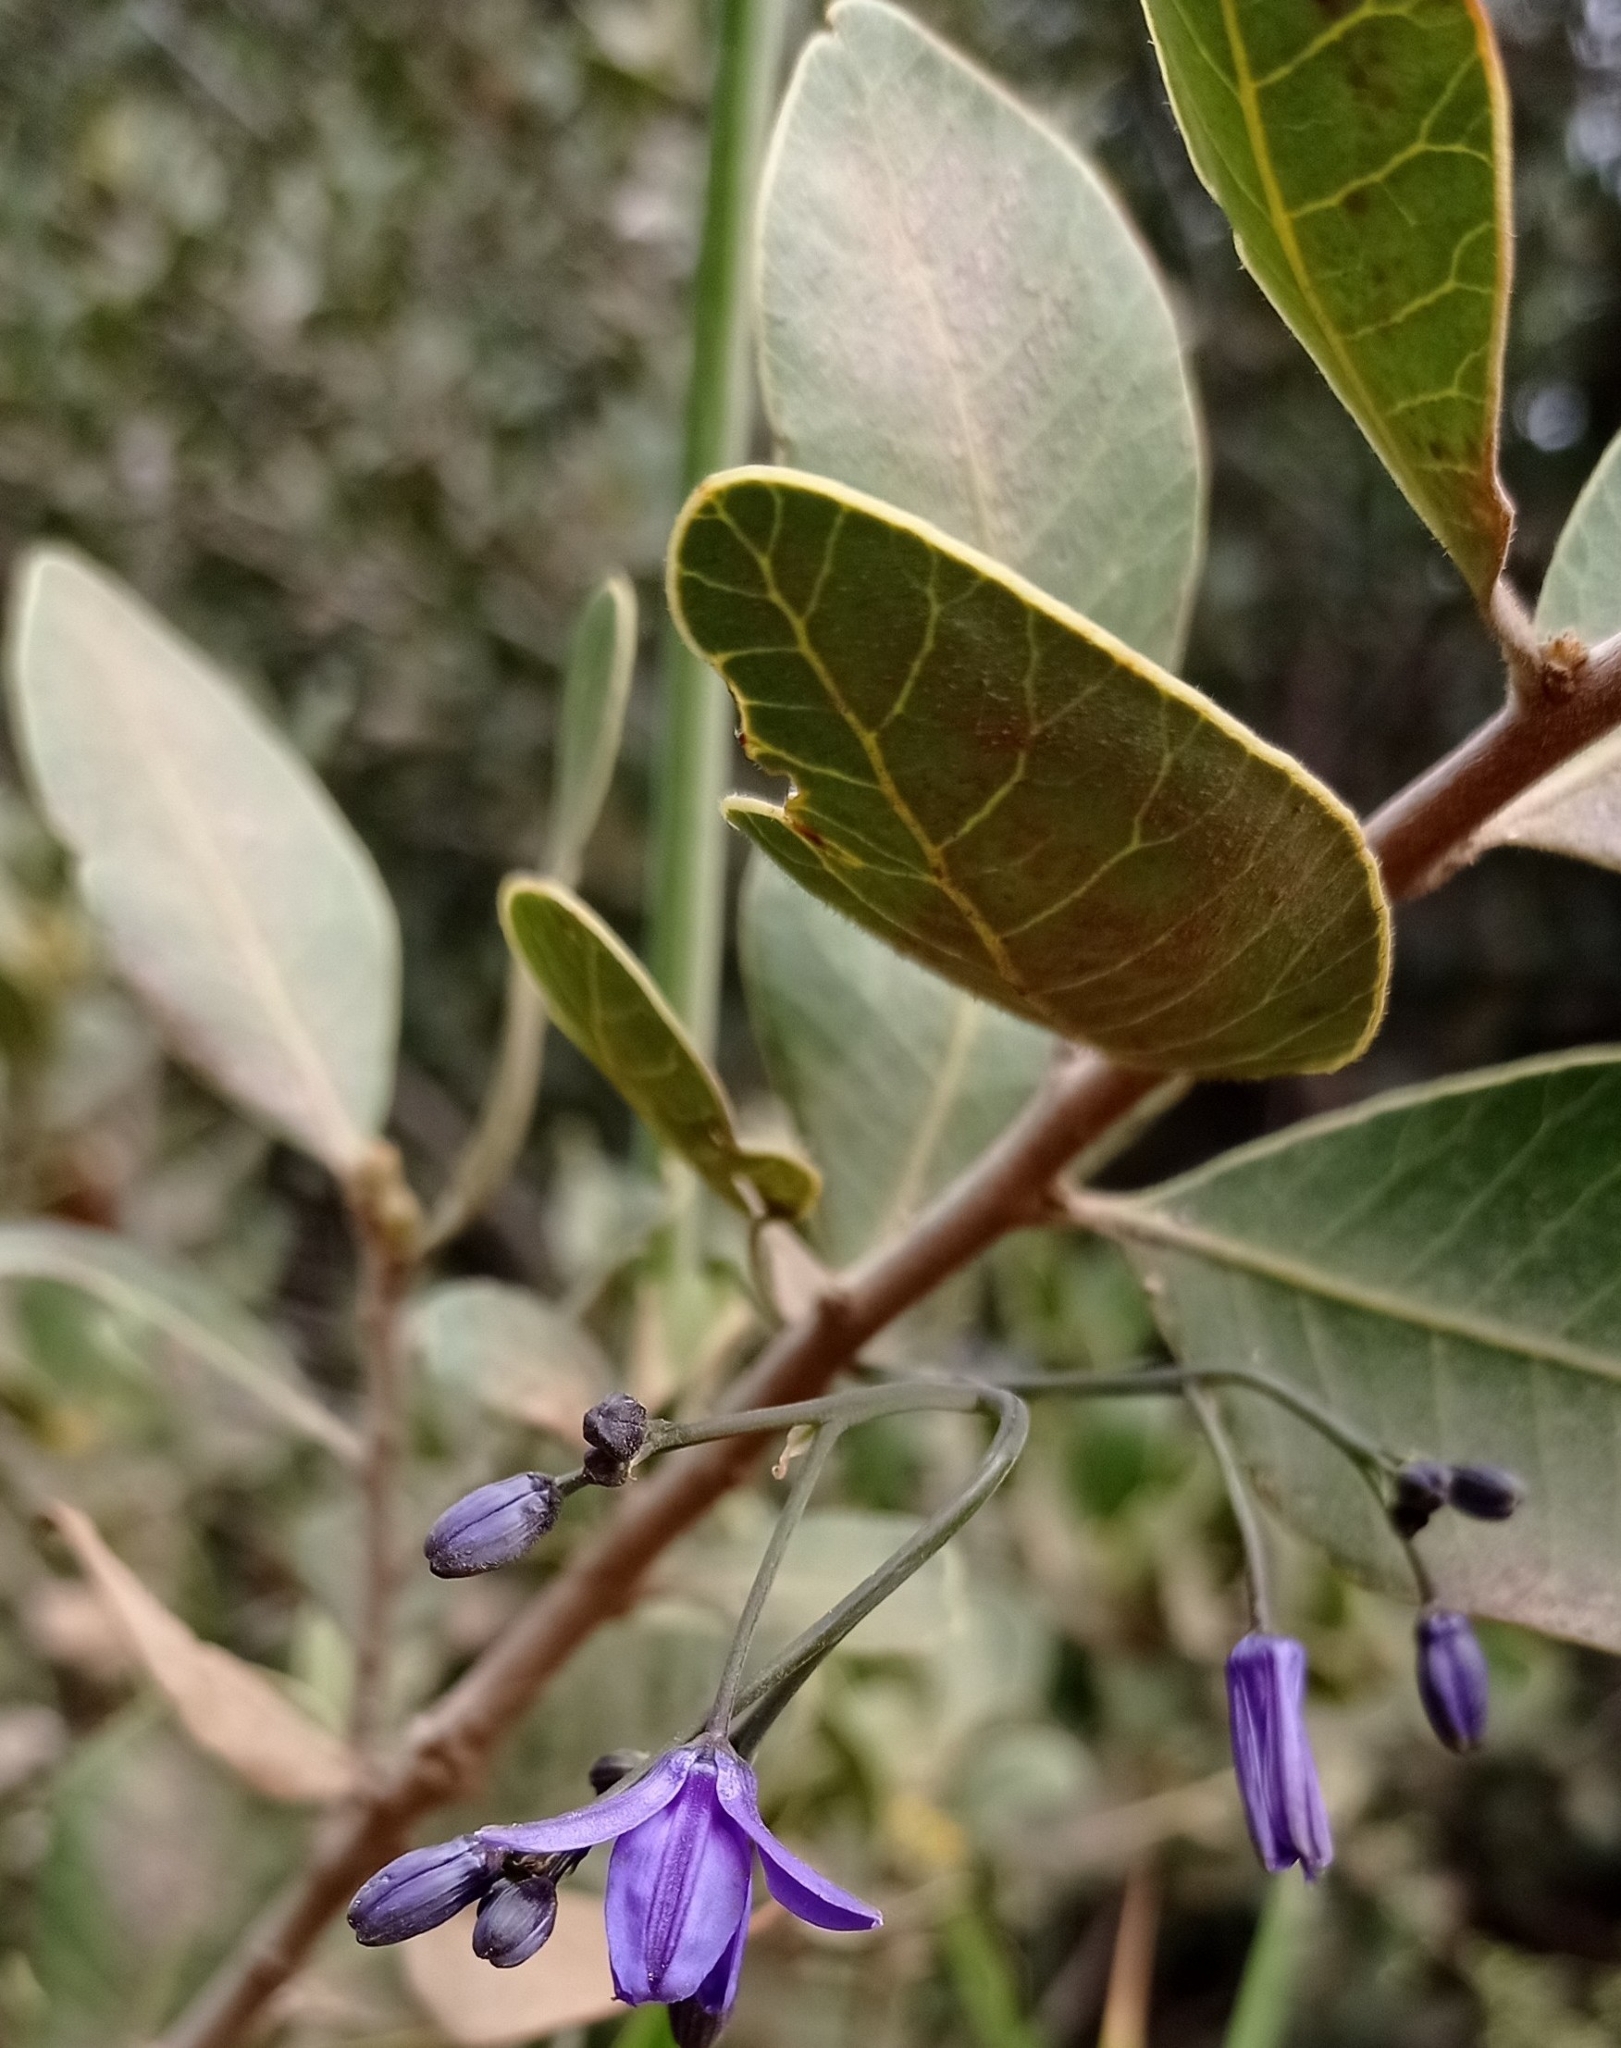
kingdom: Plantae
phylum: Tracheophyta
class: Magnoliopsida
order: Sapindales
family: Anacardiaceae
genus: Lithraea
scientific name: Lithraea caustica
